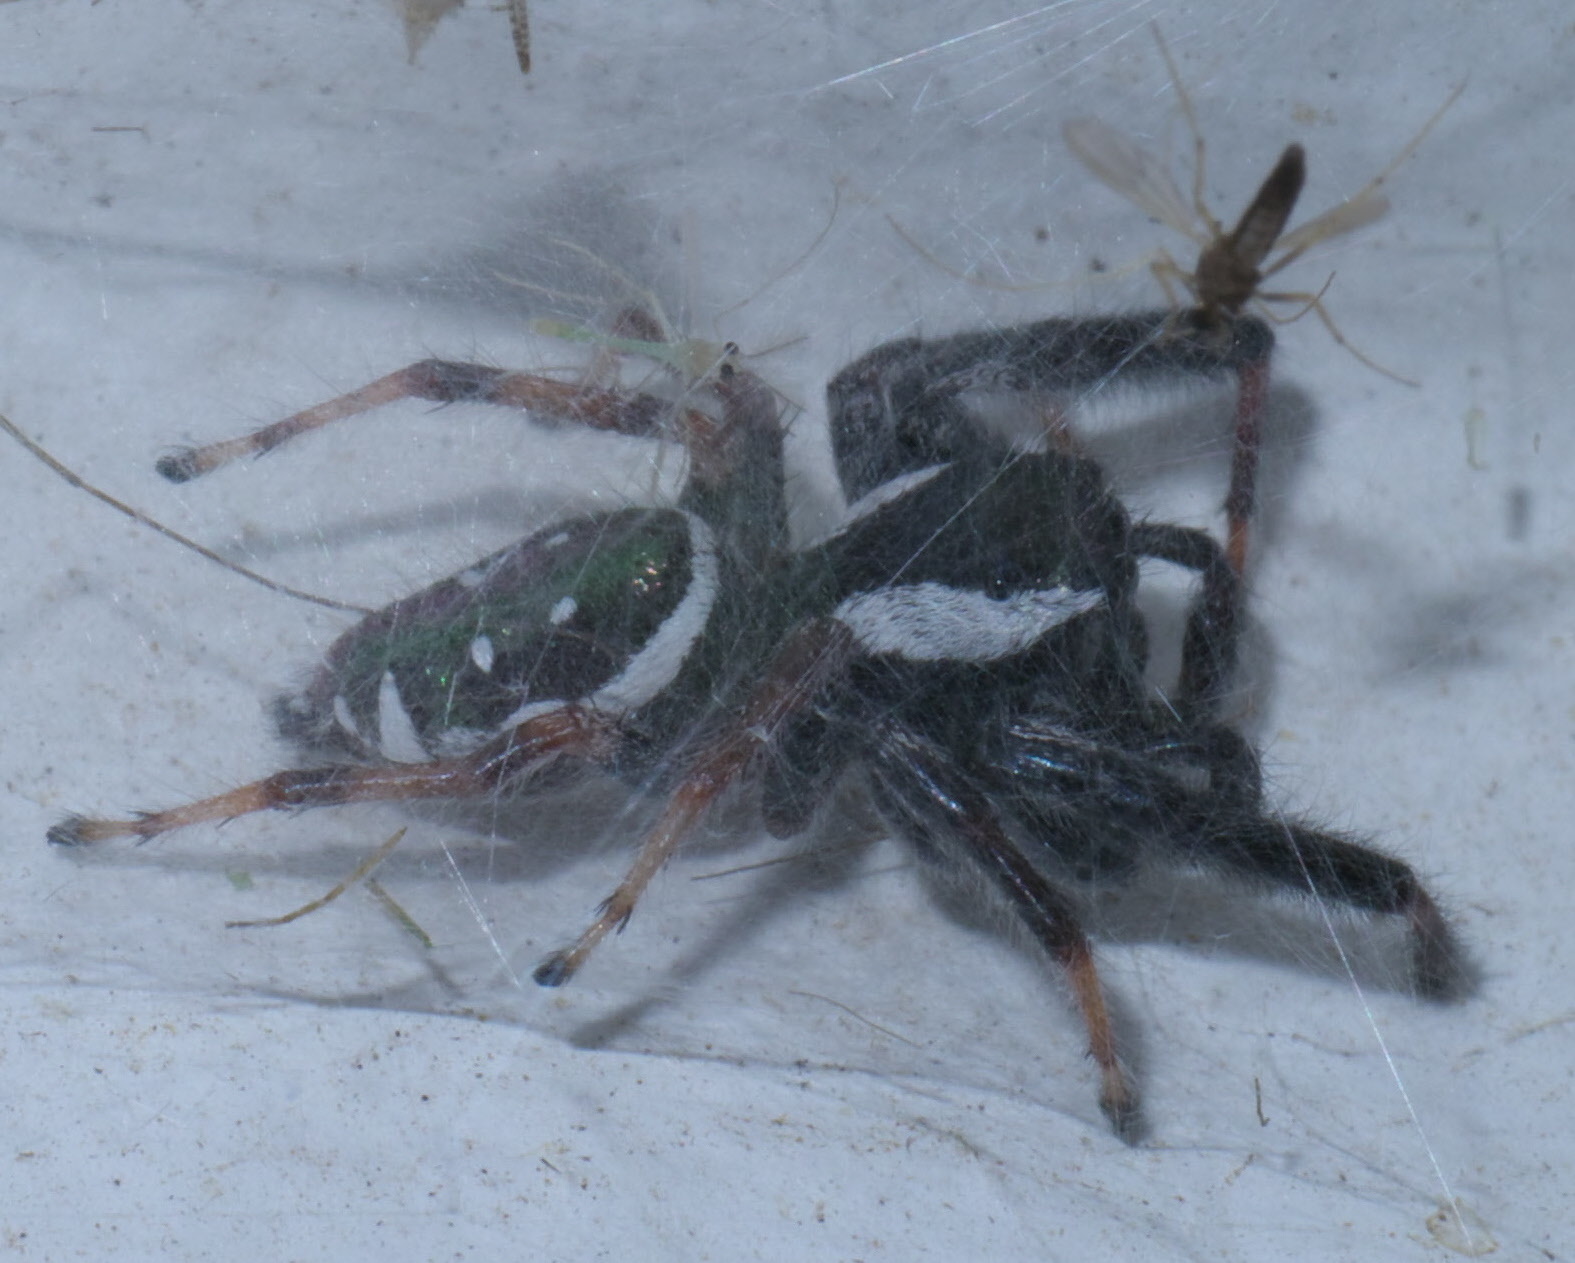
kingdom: Animalia
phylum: Arthropoda
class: Arachnida
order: Araneae
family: Salticidae
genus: Paraphidippus
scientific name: Paraphidippus aurantius
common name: Jumping spiders
